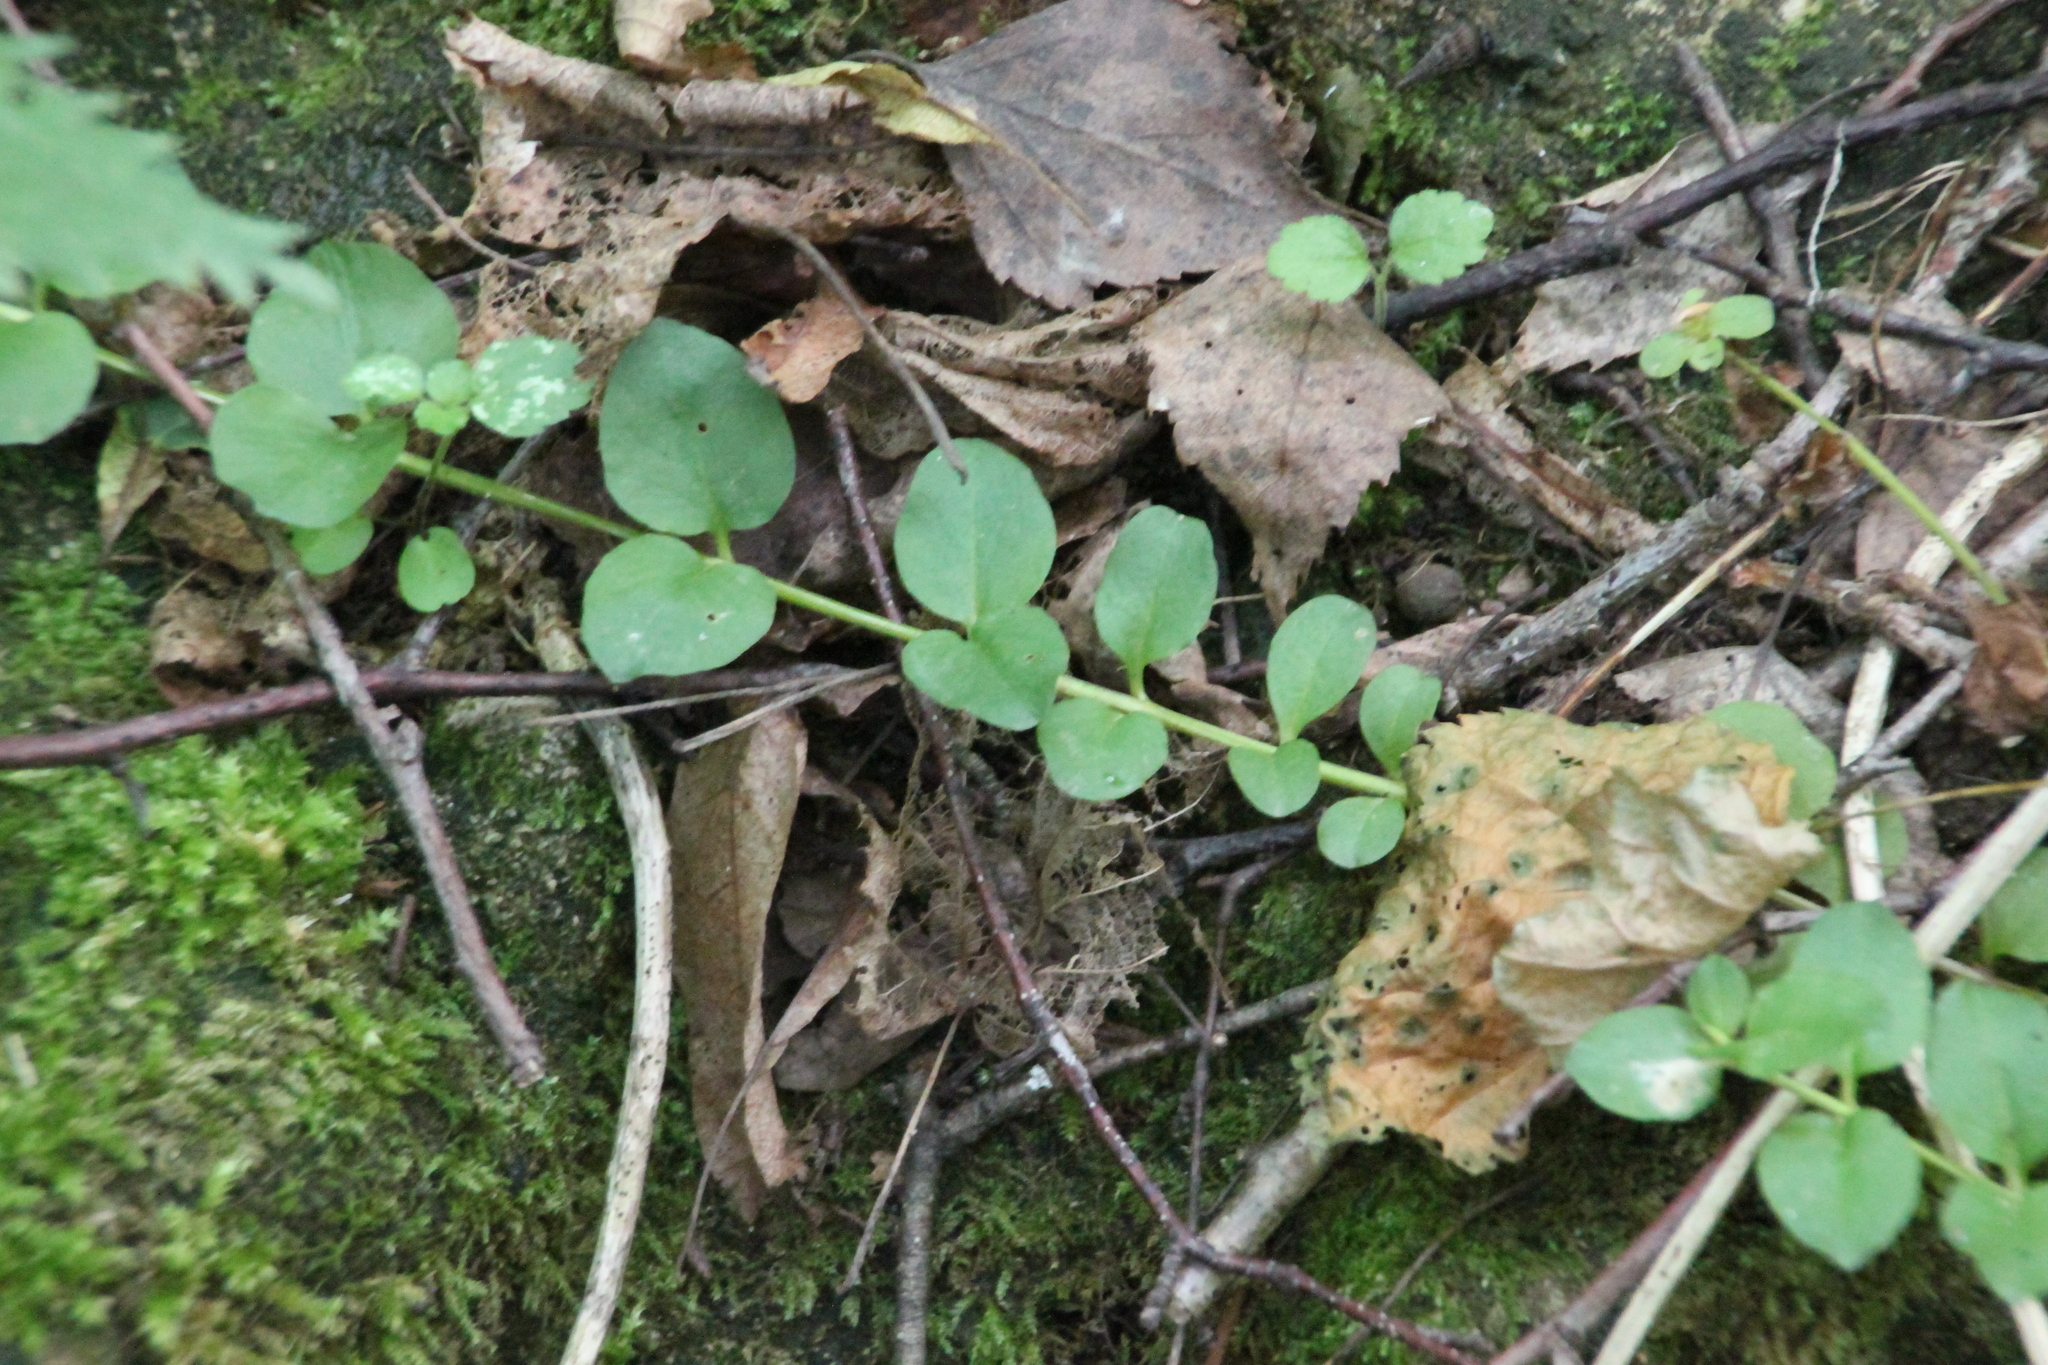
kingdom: Plantae
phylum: Tracheophyta
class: Magnoliopsida
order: Ericales
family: Primulaceae
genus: Lysimachia
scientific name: Lysimachia nummularia
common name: Moneywort
